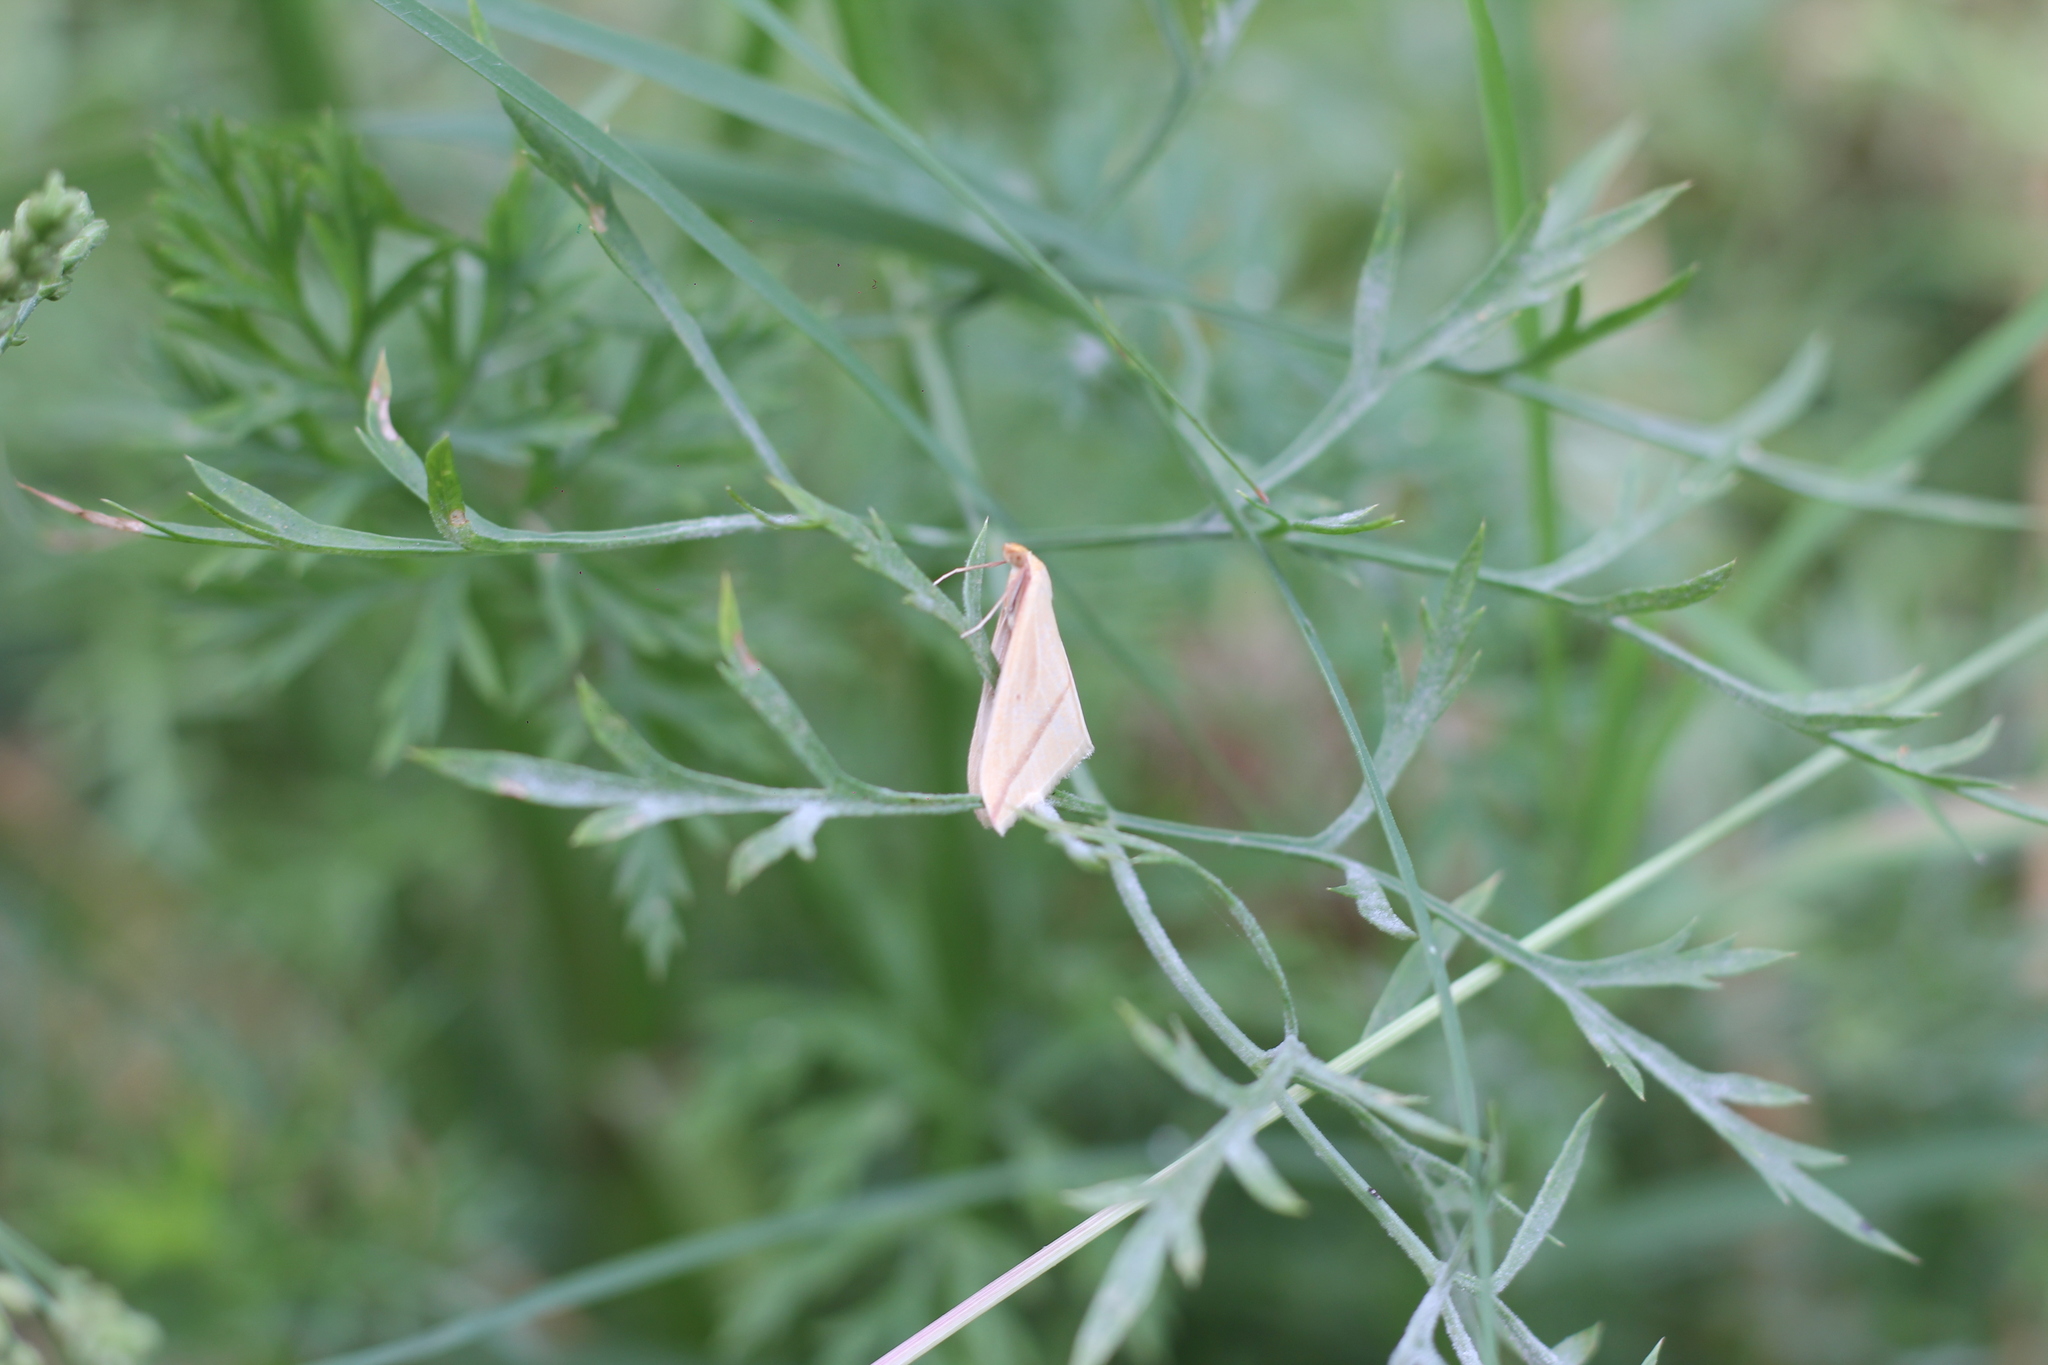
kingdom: Animalia
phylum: Arthropoda
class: Insecta
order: Lepidoptera
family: Geometridae
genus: Rhodometra
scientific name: Rhodometra sacraria
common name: Vestal
